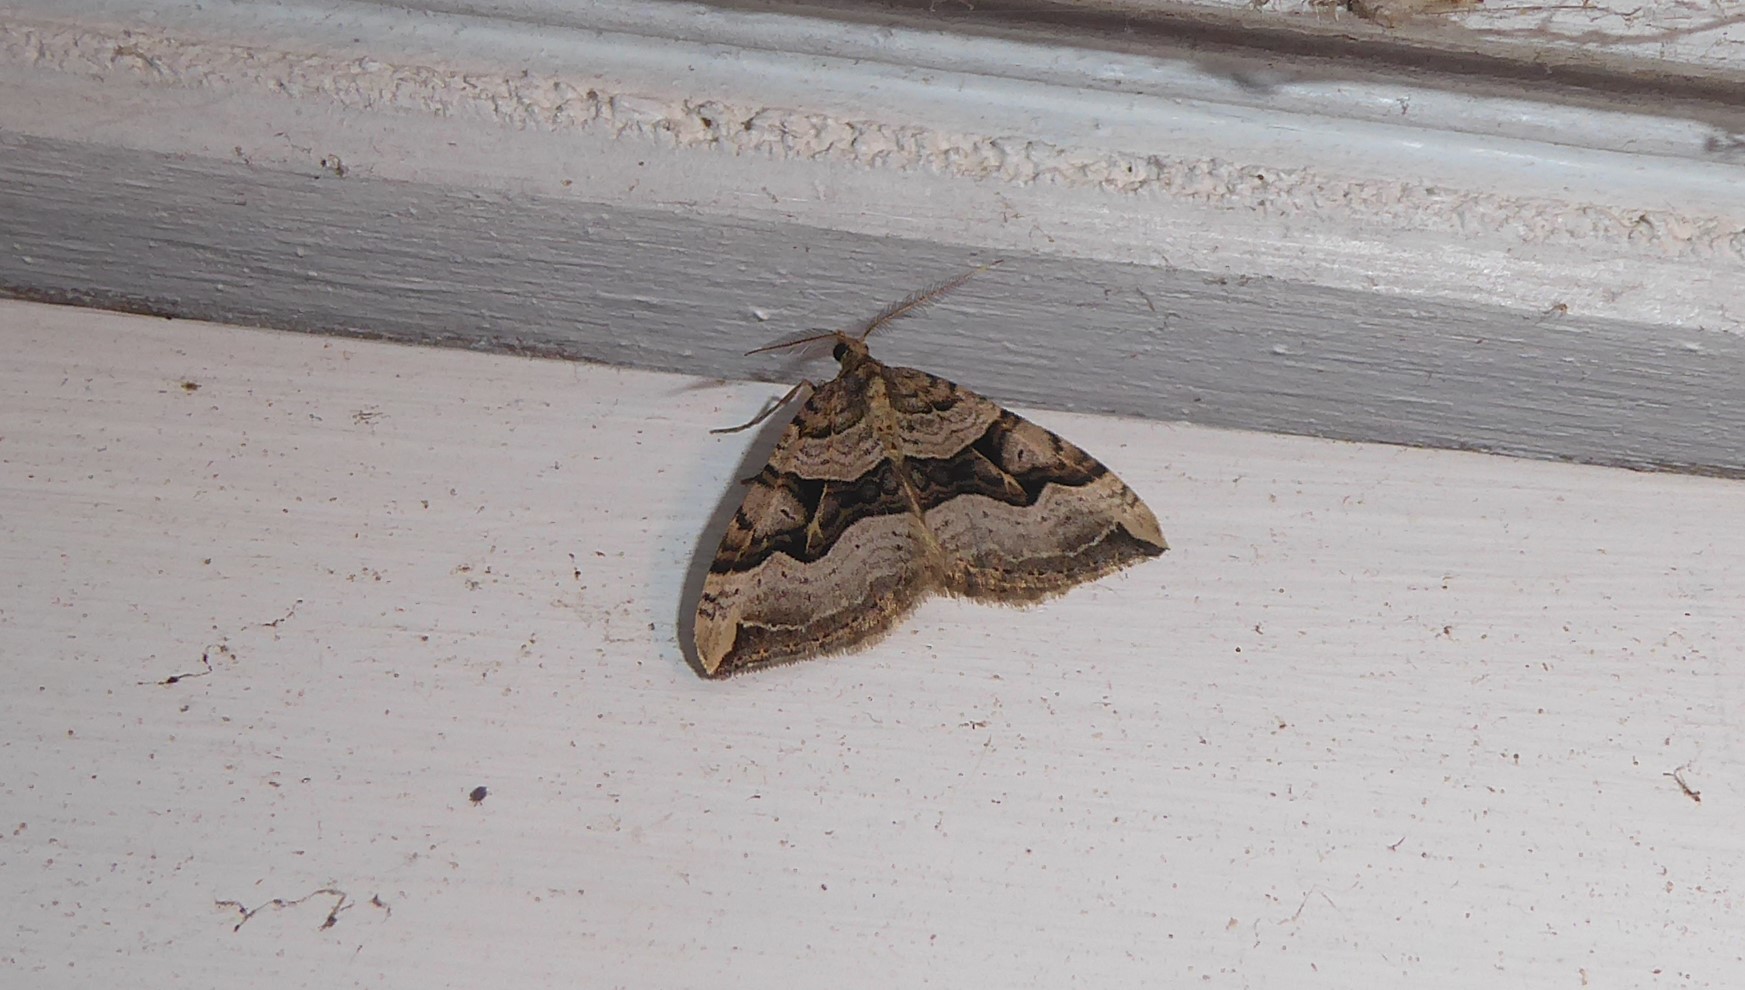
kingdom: Animalia
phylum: Arthropoda
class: Insecta
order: Lepidoptera
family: Geometridae
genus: Xanthorhoe
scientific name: Xanthorhoe semifissata
